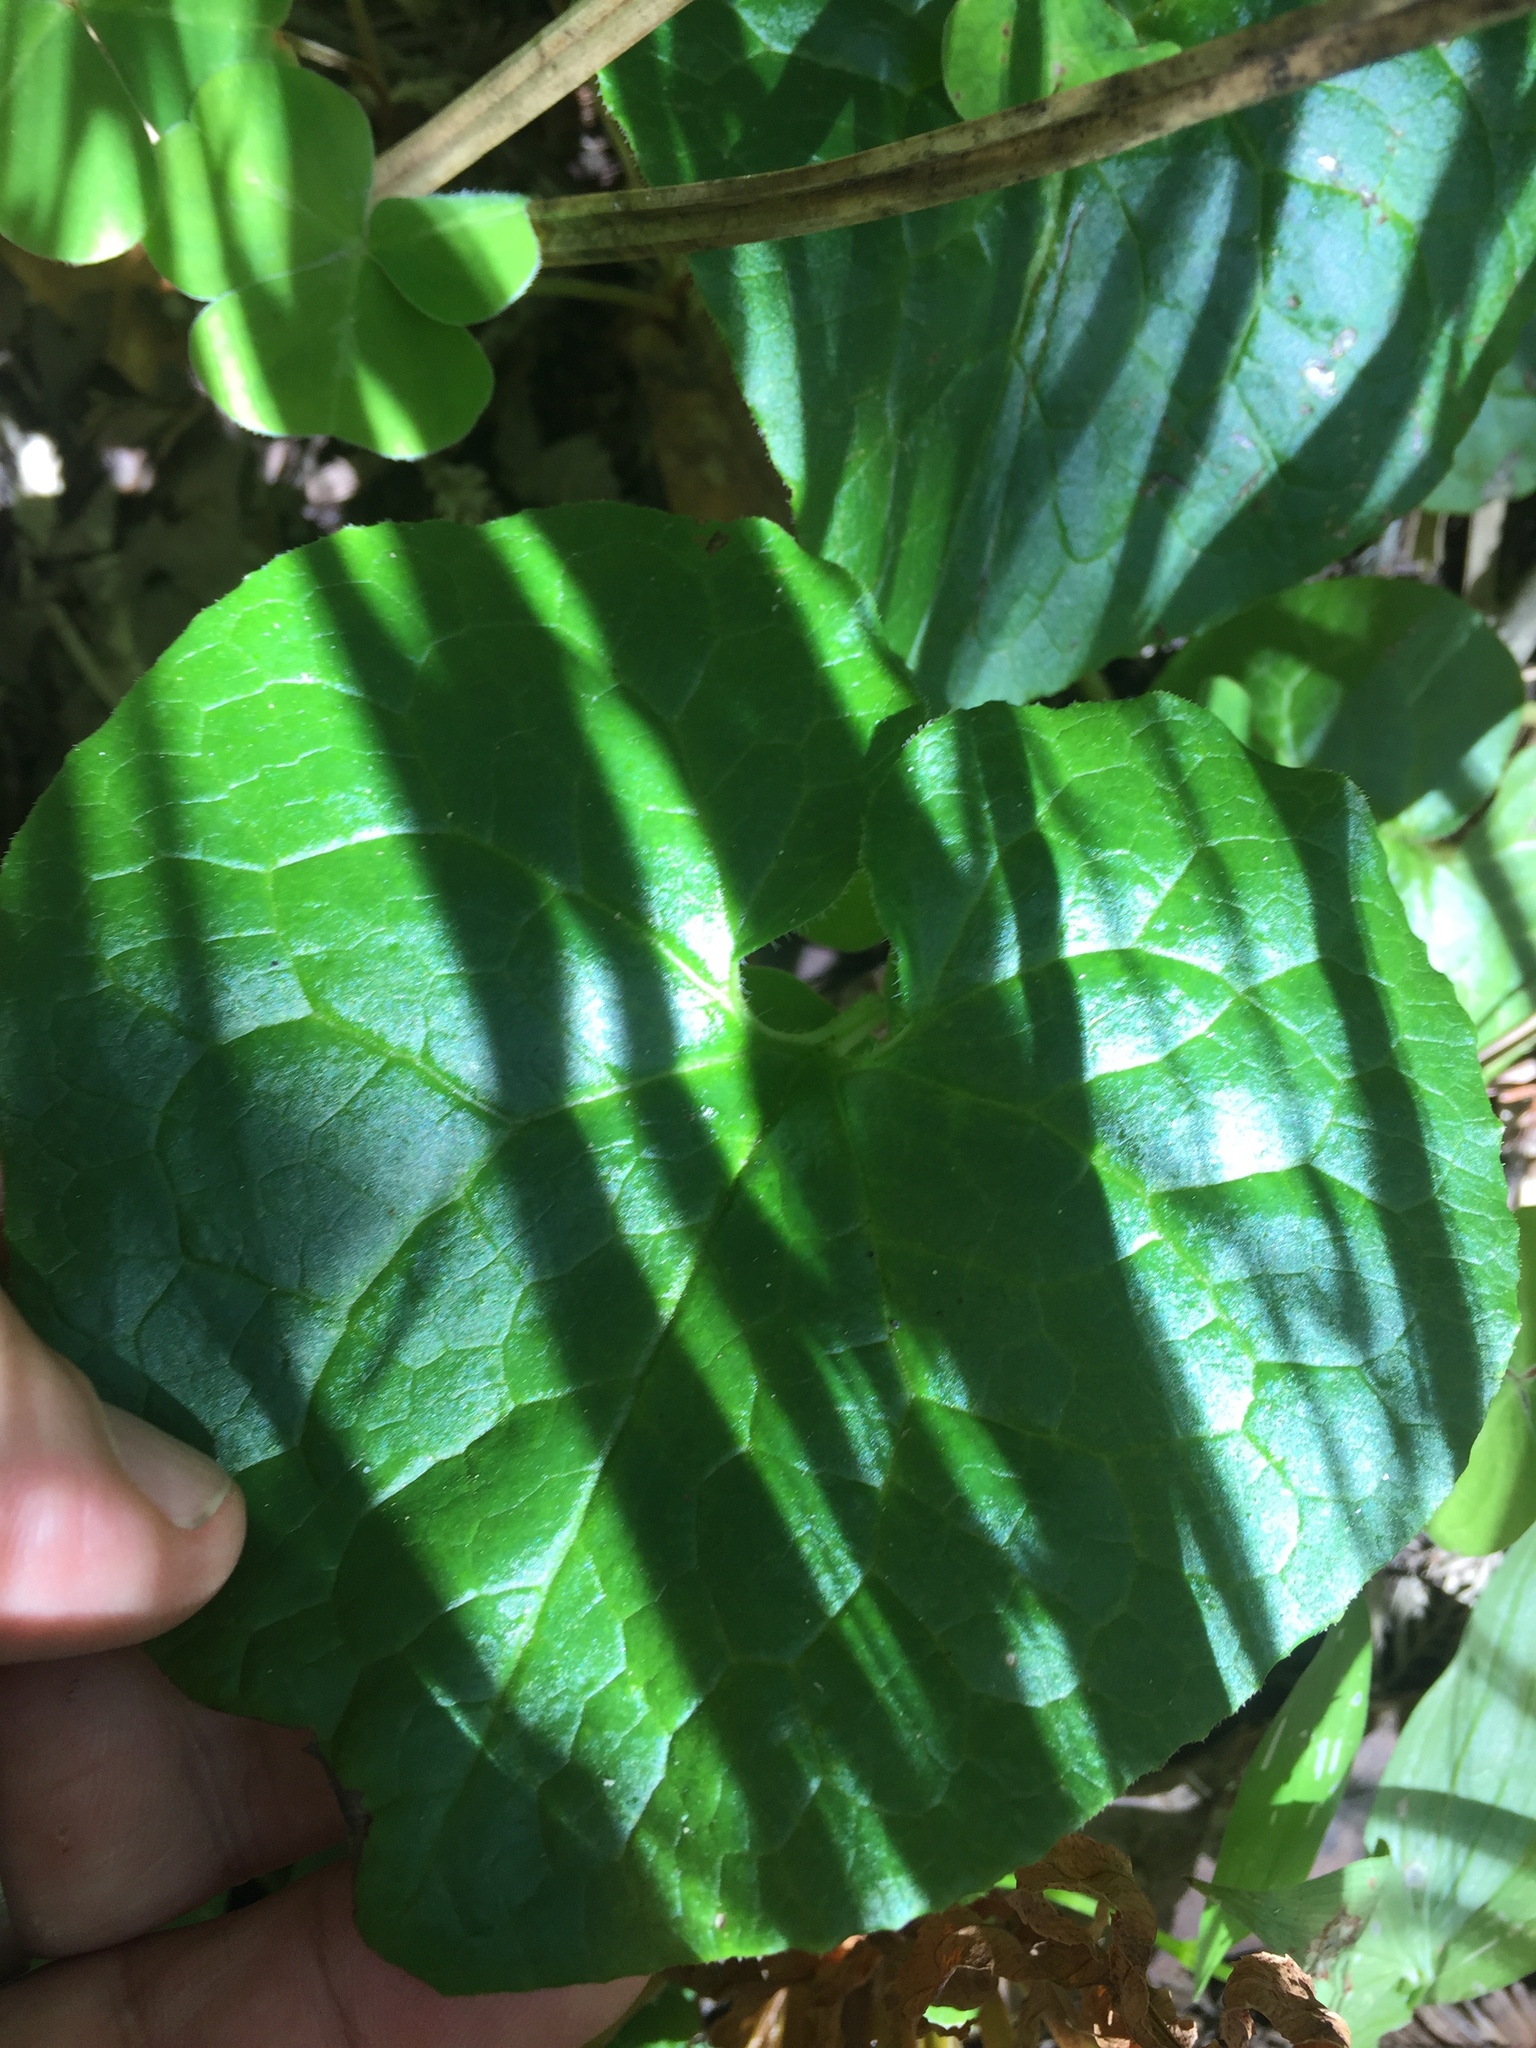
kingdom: Plantae
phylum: Tracheophyta
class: Magnoliopsida
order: Piperales
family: Aristolochiaceae
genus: Asarum
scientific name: Asarum caudatum
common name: Wild ginger
